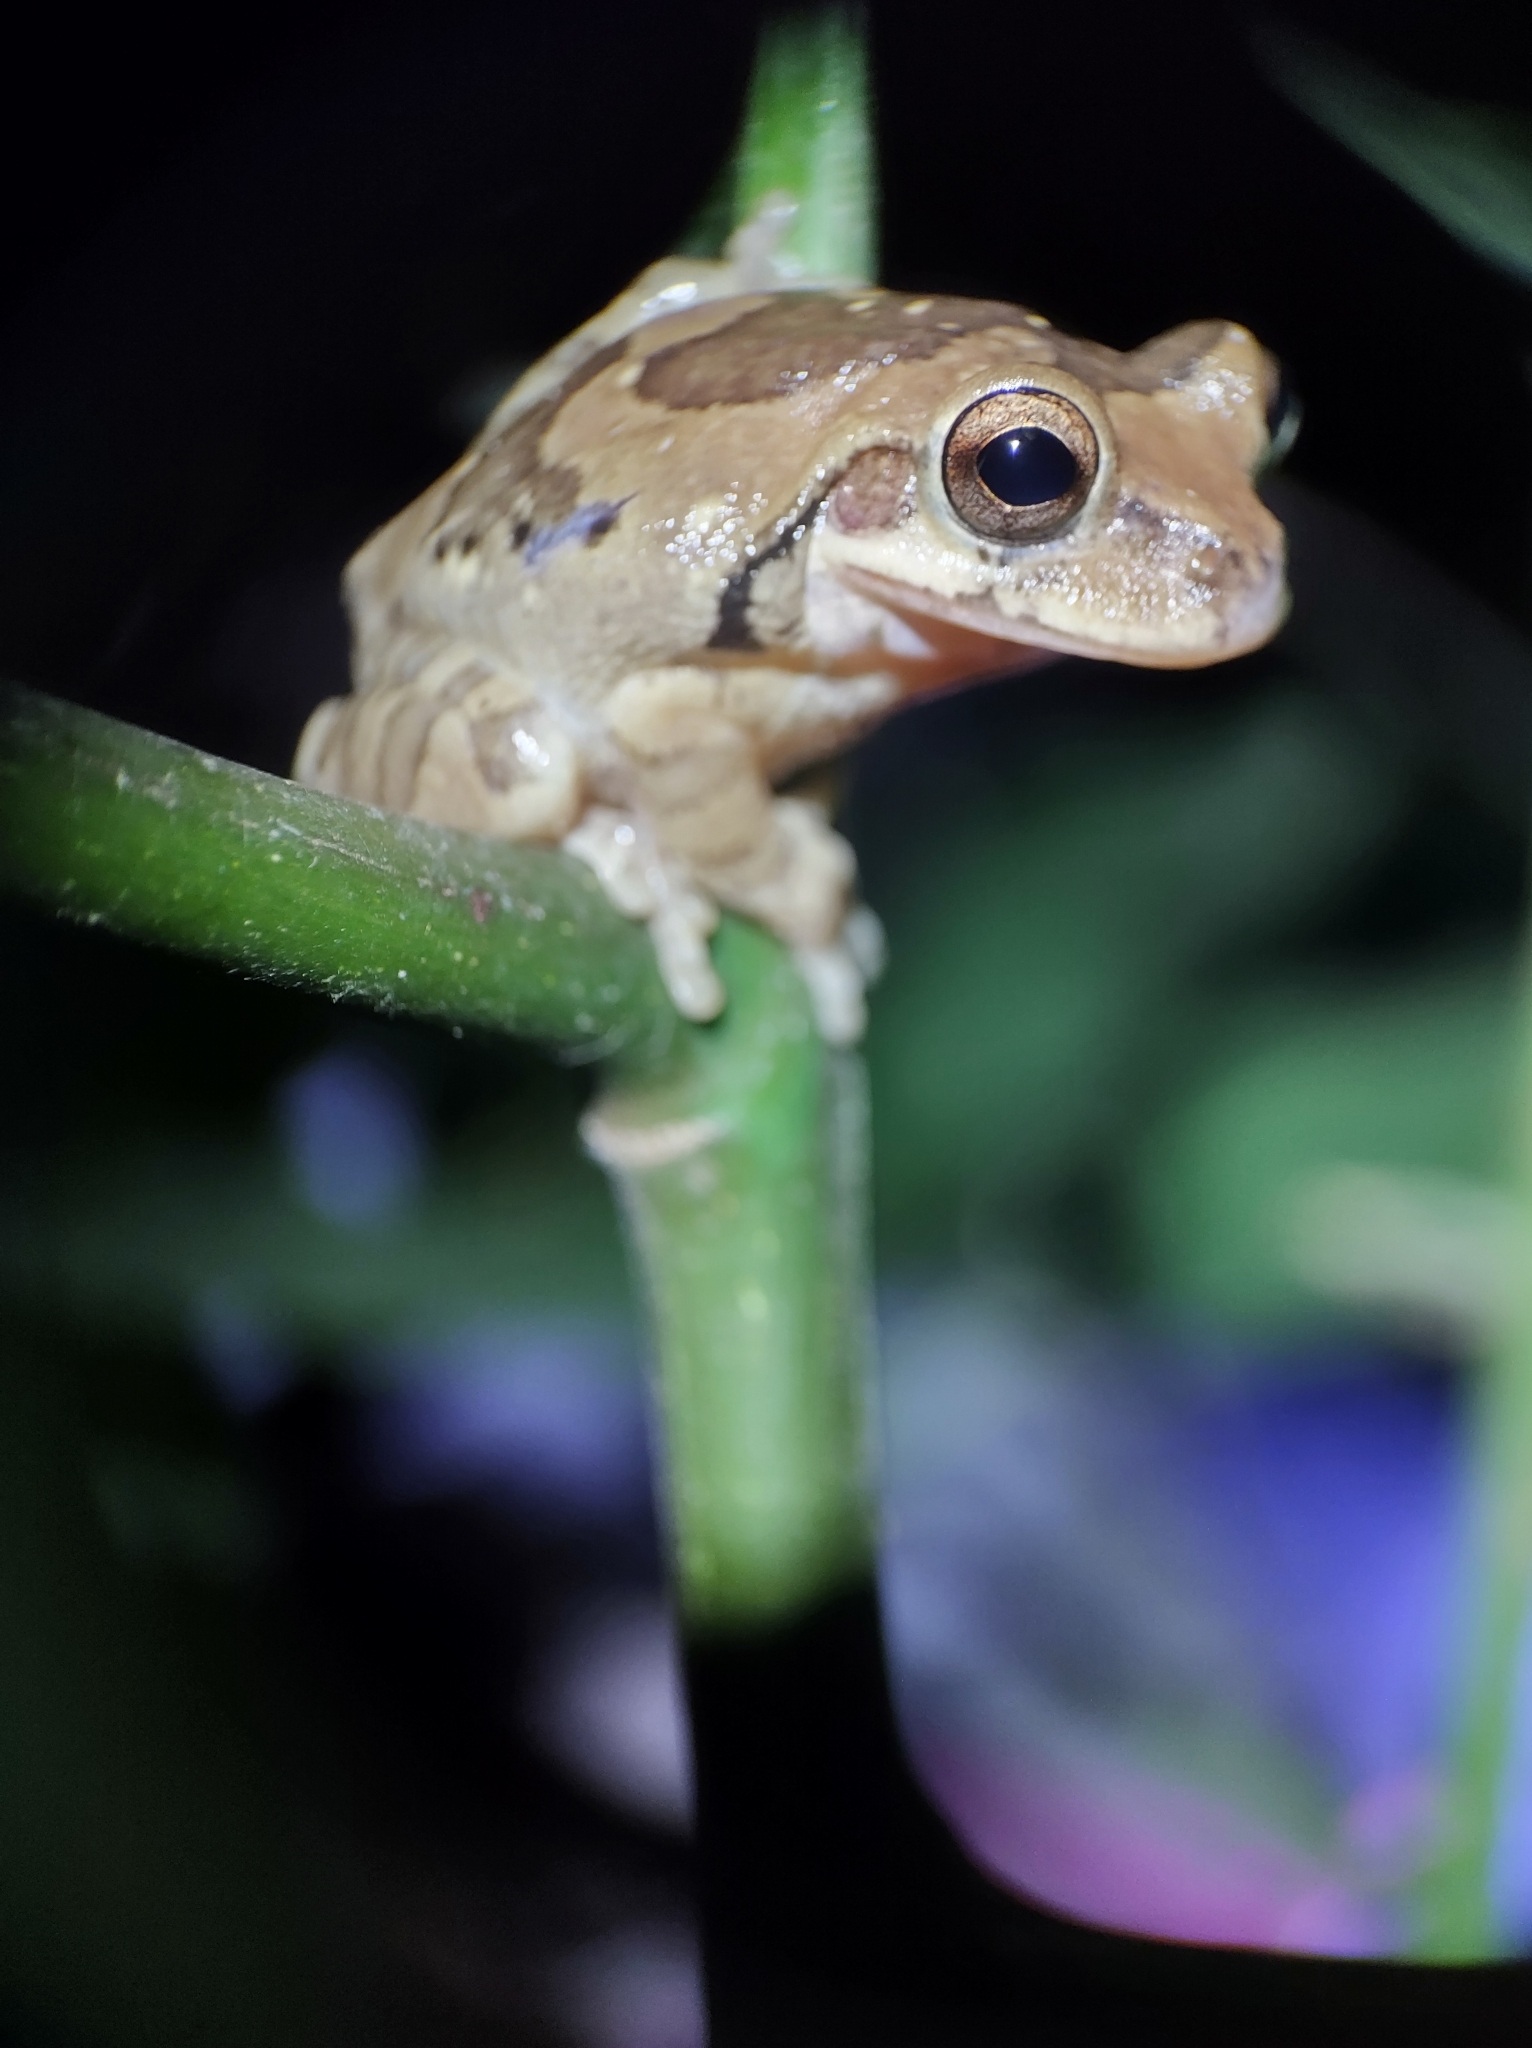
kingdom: Animalia
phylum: Chordata
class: Amphibia
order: Anura
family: Hylidae
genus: Smilisca
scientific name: Smilisca baudinii
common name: Mexican smilisca
